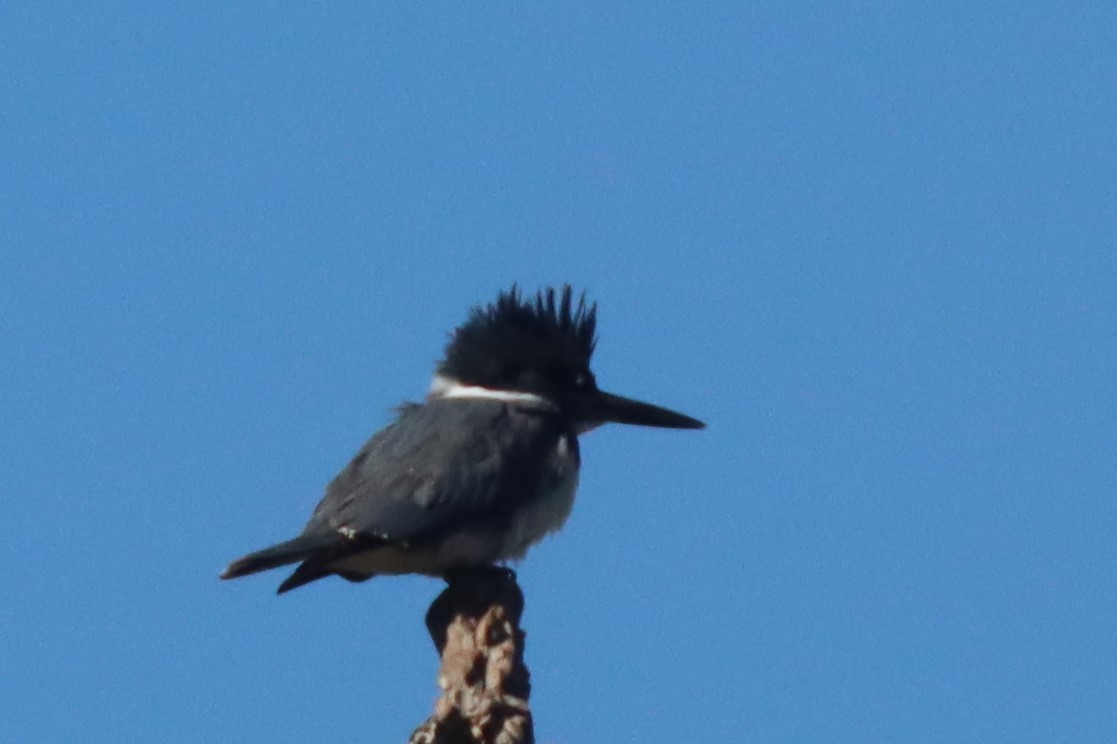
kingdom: Animalia
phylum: Chordata
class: Aves
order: Coraciiformes
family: Alcedinidae
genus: Megaceryle
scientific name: Megaceryle alcyon
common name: Belted kingfisher
